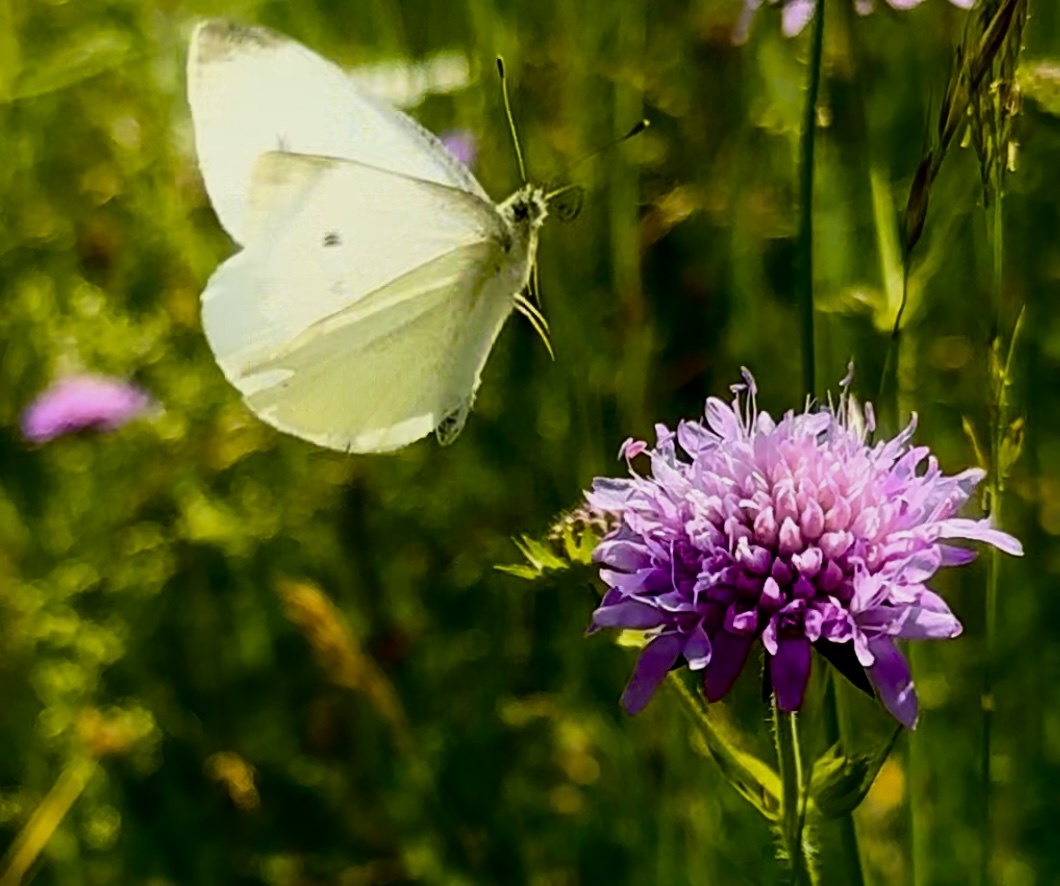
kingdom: Animalia
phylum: Arthropoda
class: Insecta
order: Lepidoptera
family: Pieridae
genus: Pieris
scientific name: Pieris rapae
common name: Small white
